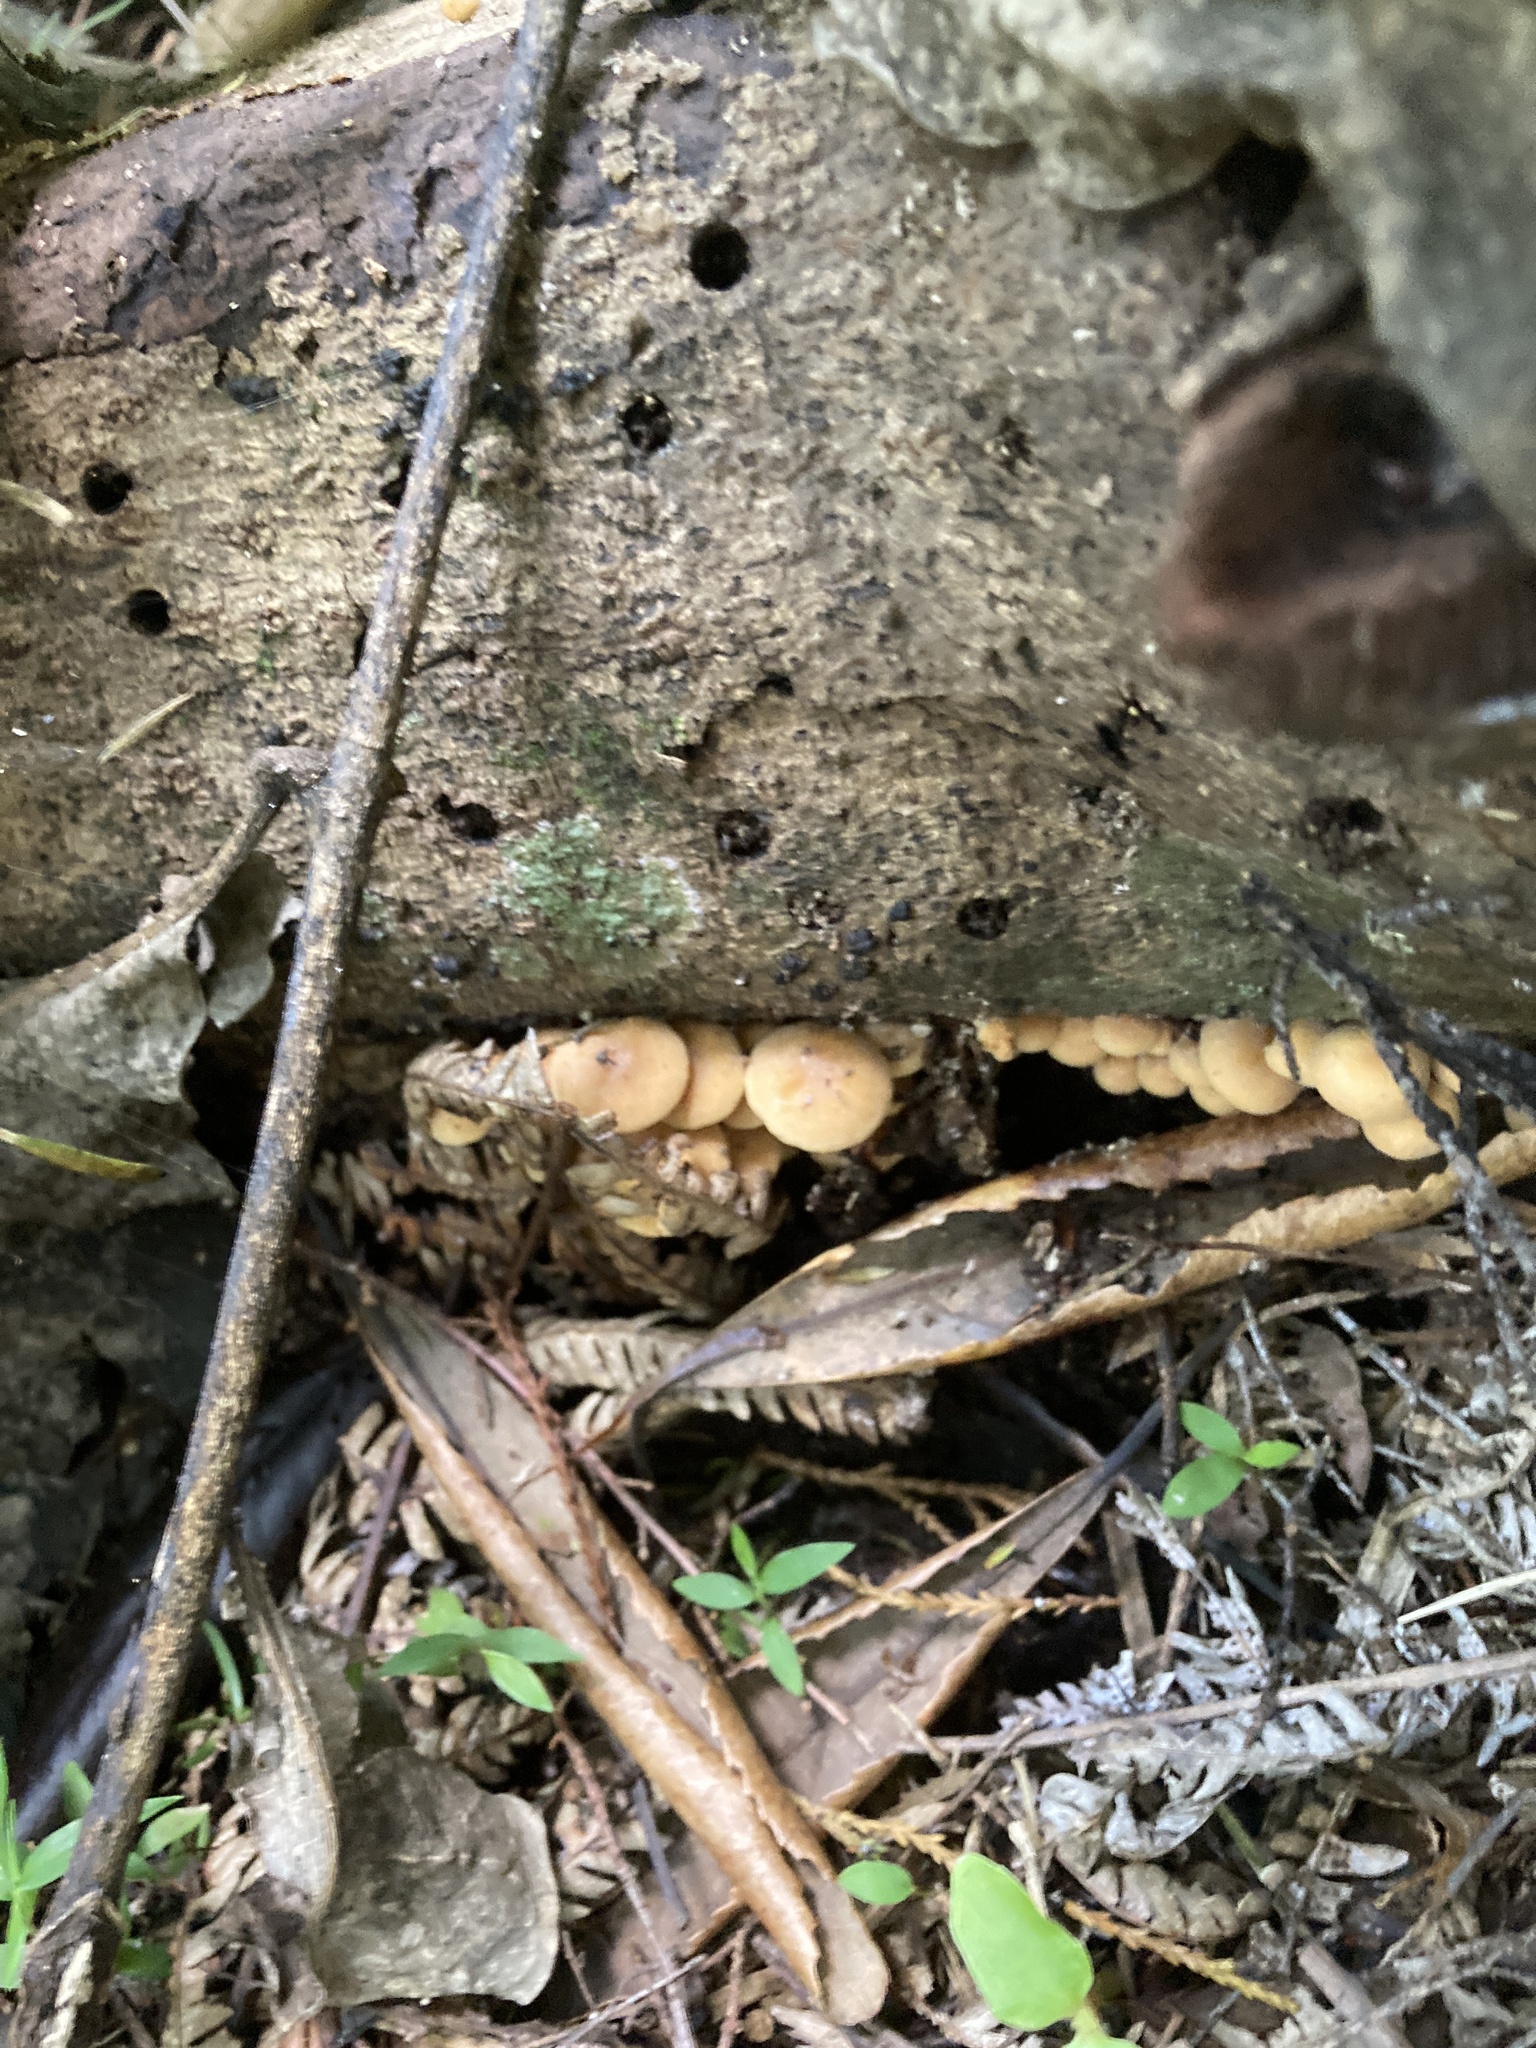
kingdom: Fungi
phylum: Basidiomycota
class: Agaricomycetes
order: Agaricales
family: Strophariaceae
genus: Hypholoma
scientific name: Hypholoma acutum
